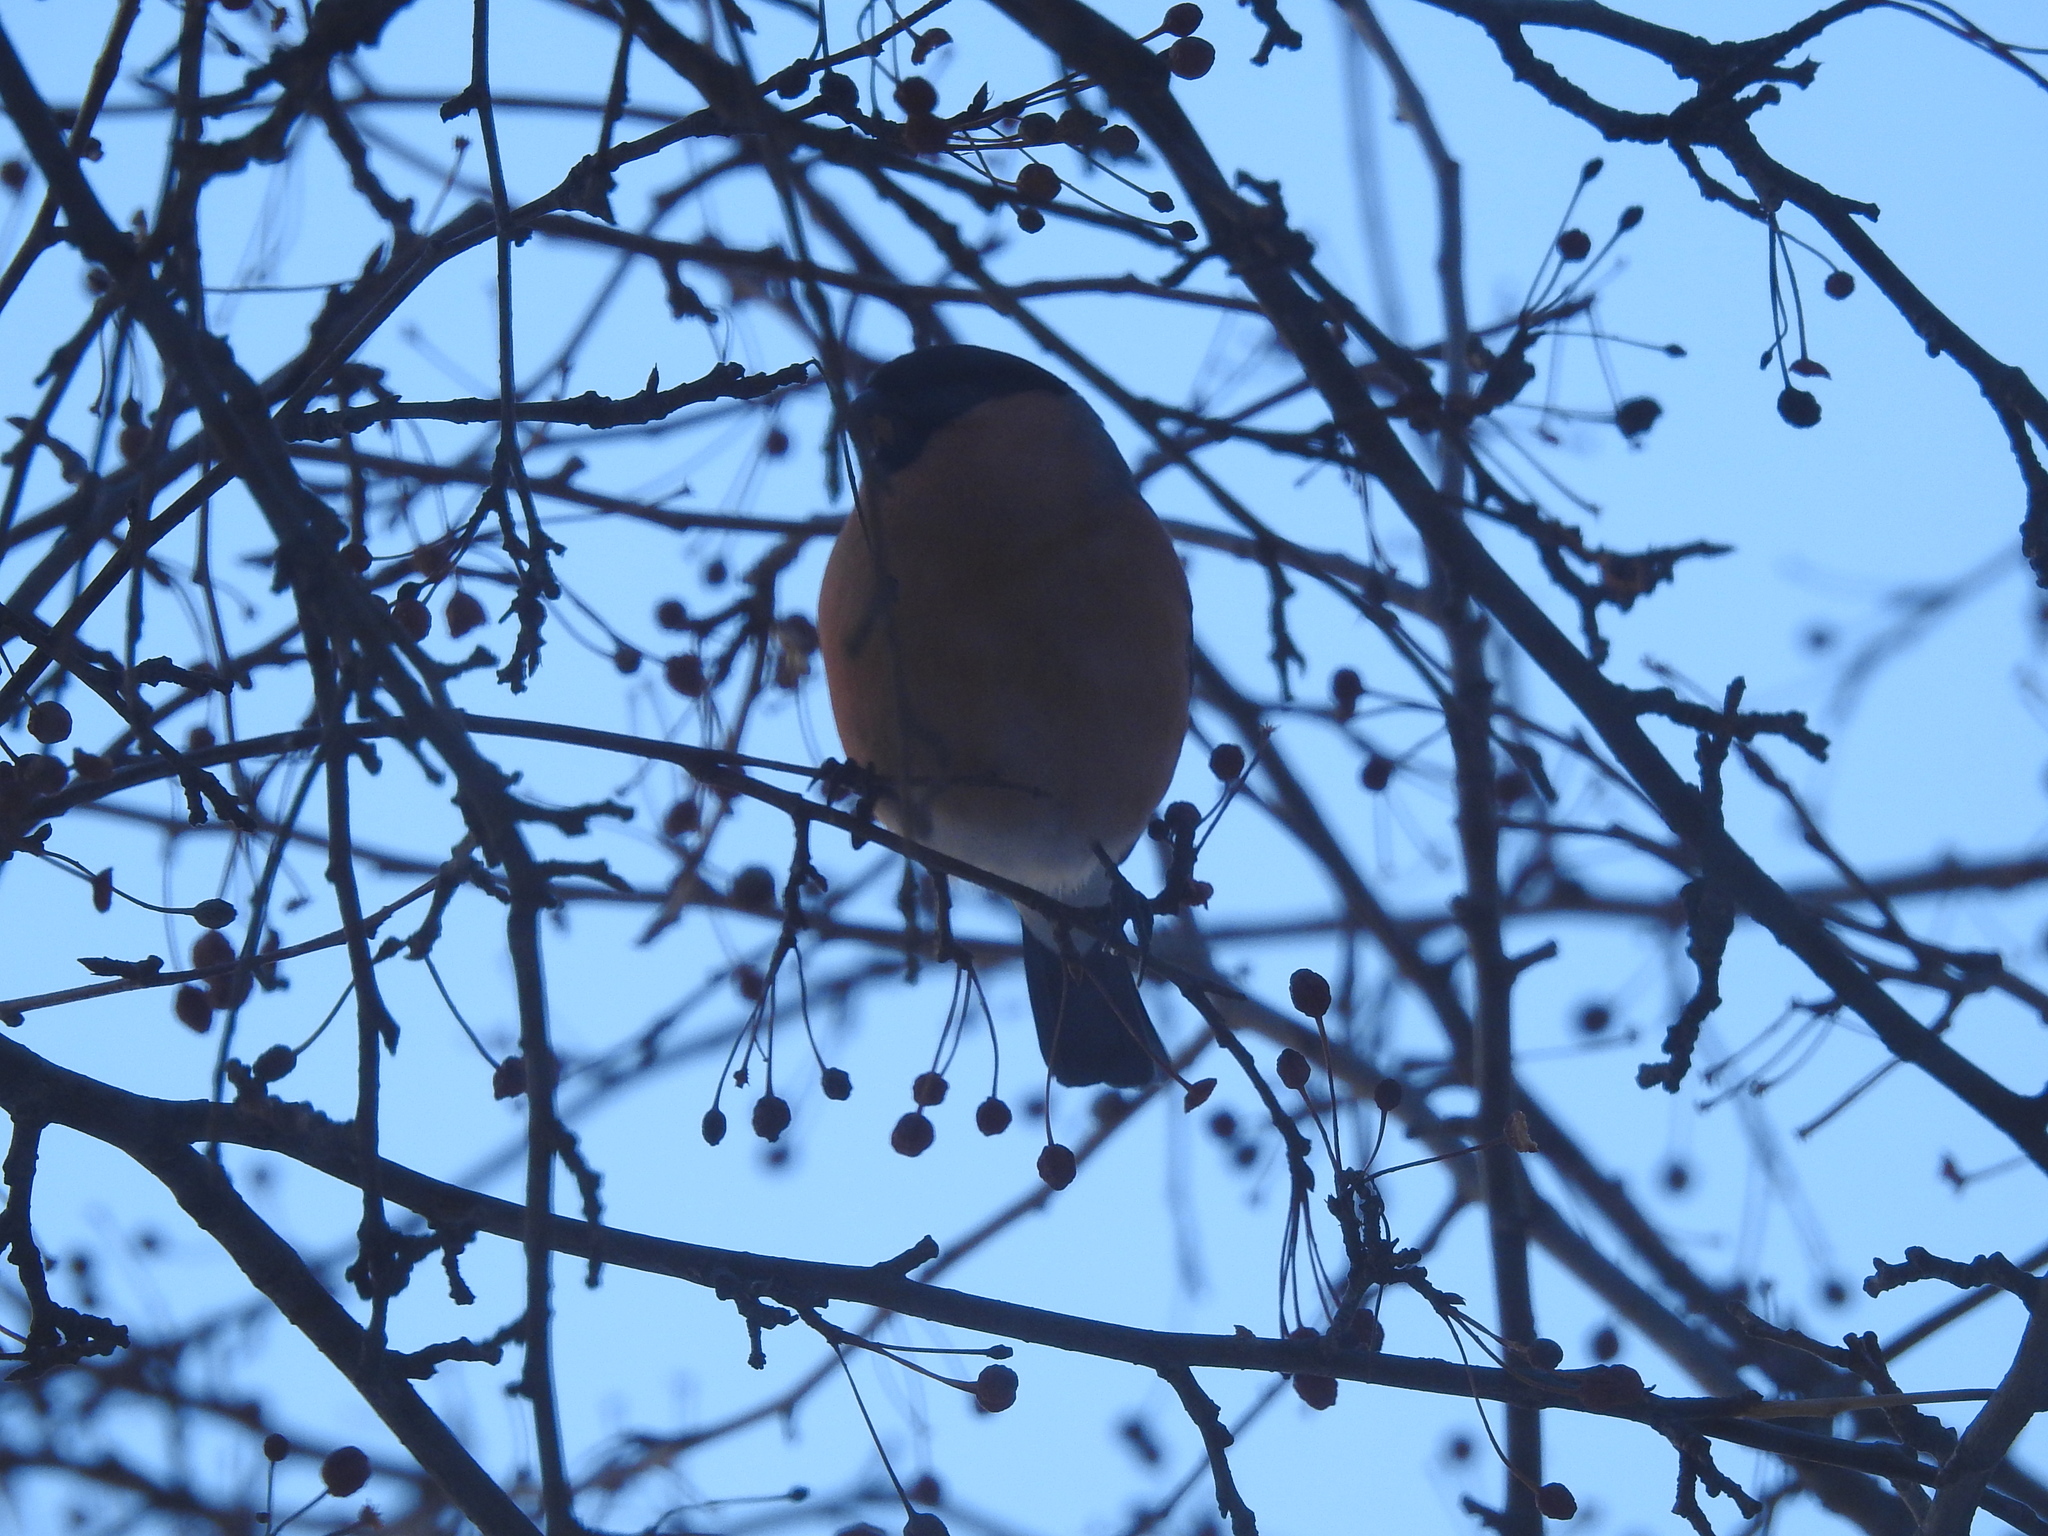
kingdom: Animalia
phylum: Chordata
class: Aves
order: Passeriformes
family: Fringillidae
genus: Pyrrhula
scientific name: Pyrrhula pyrrhula
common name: Eurasian bullfinch
